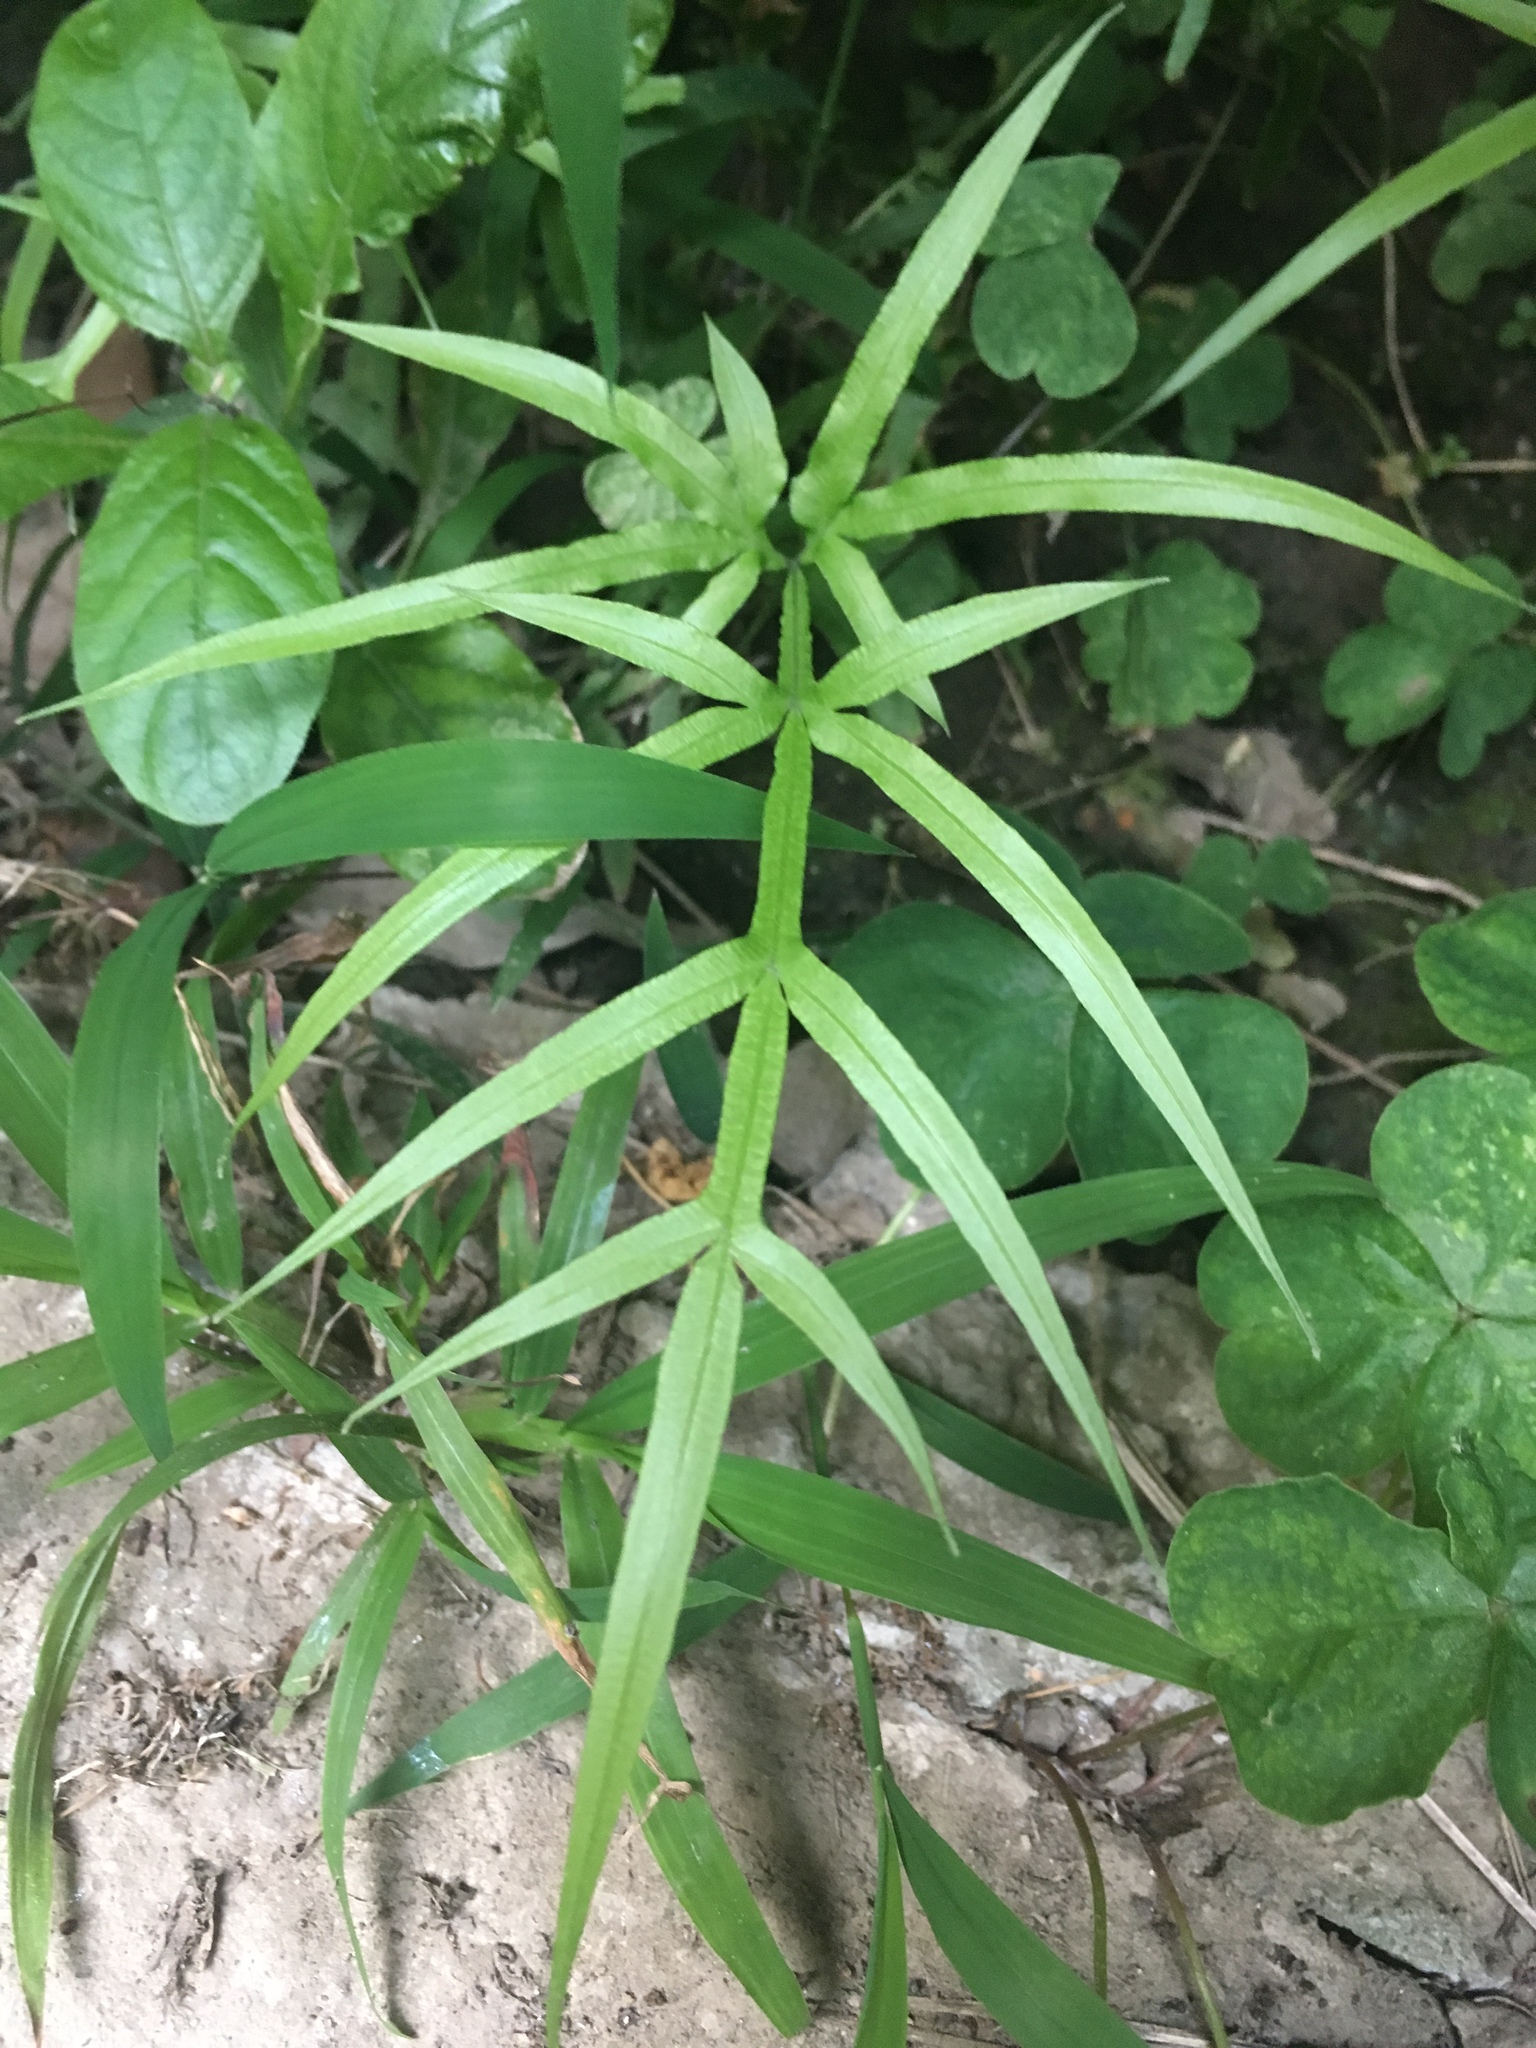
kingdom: Plantae
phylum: Tracheophyta
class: Polypodiopsida
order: Polypodiales
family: Pteridaceae
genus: Pteris
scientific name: Pteris multifida
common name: Spider brake
